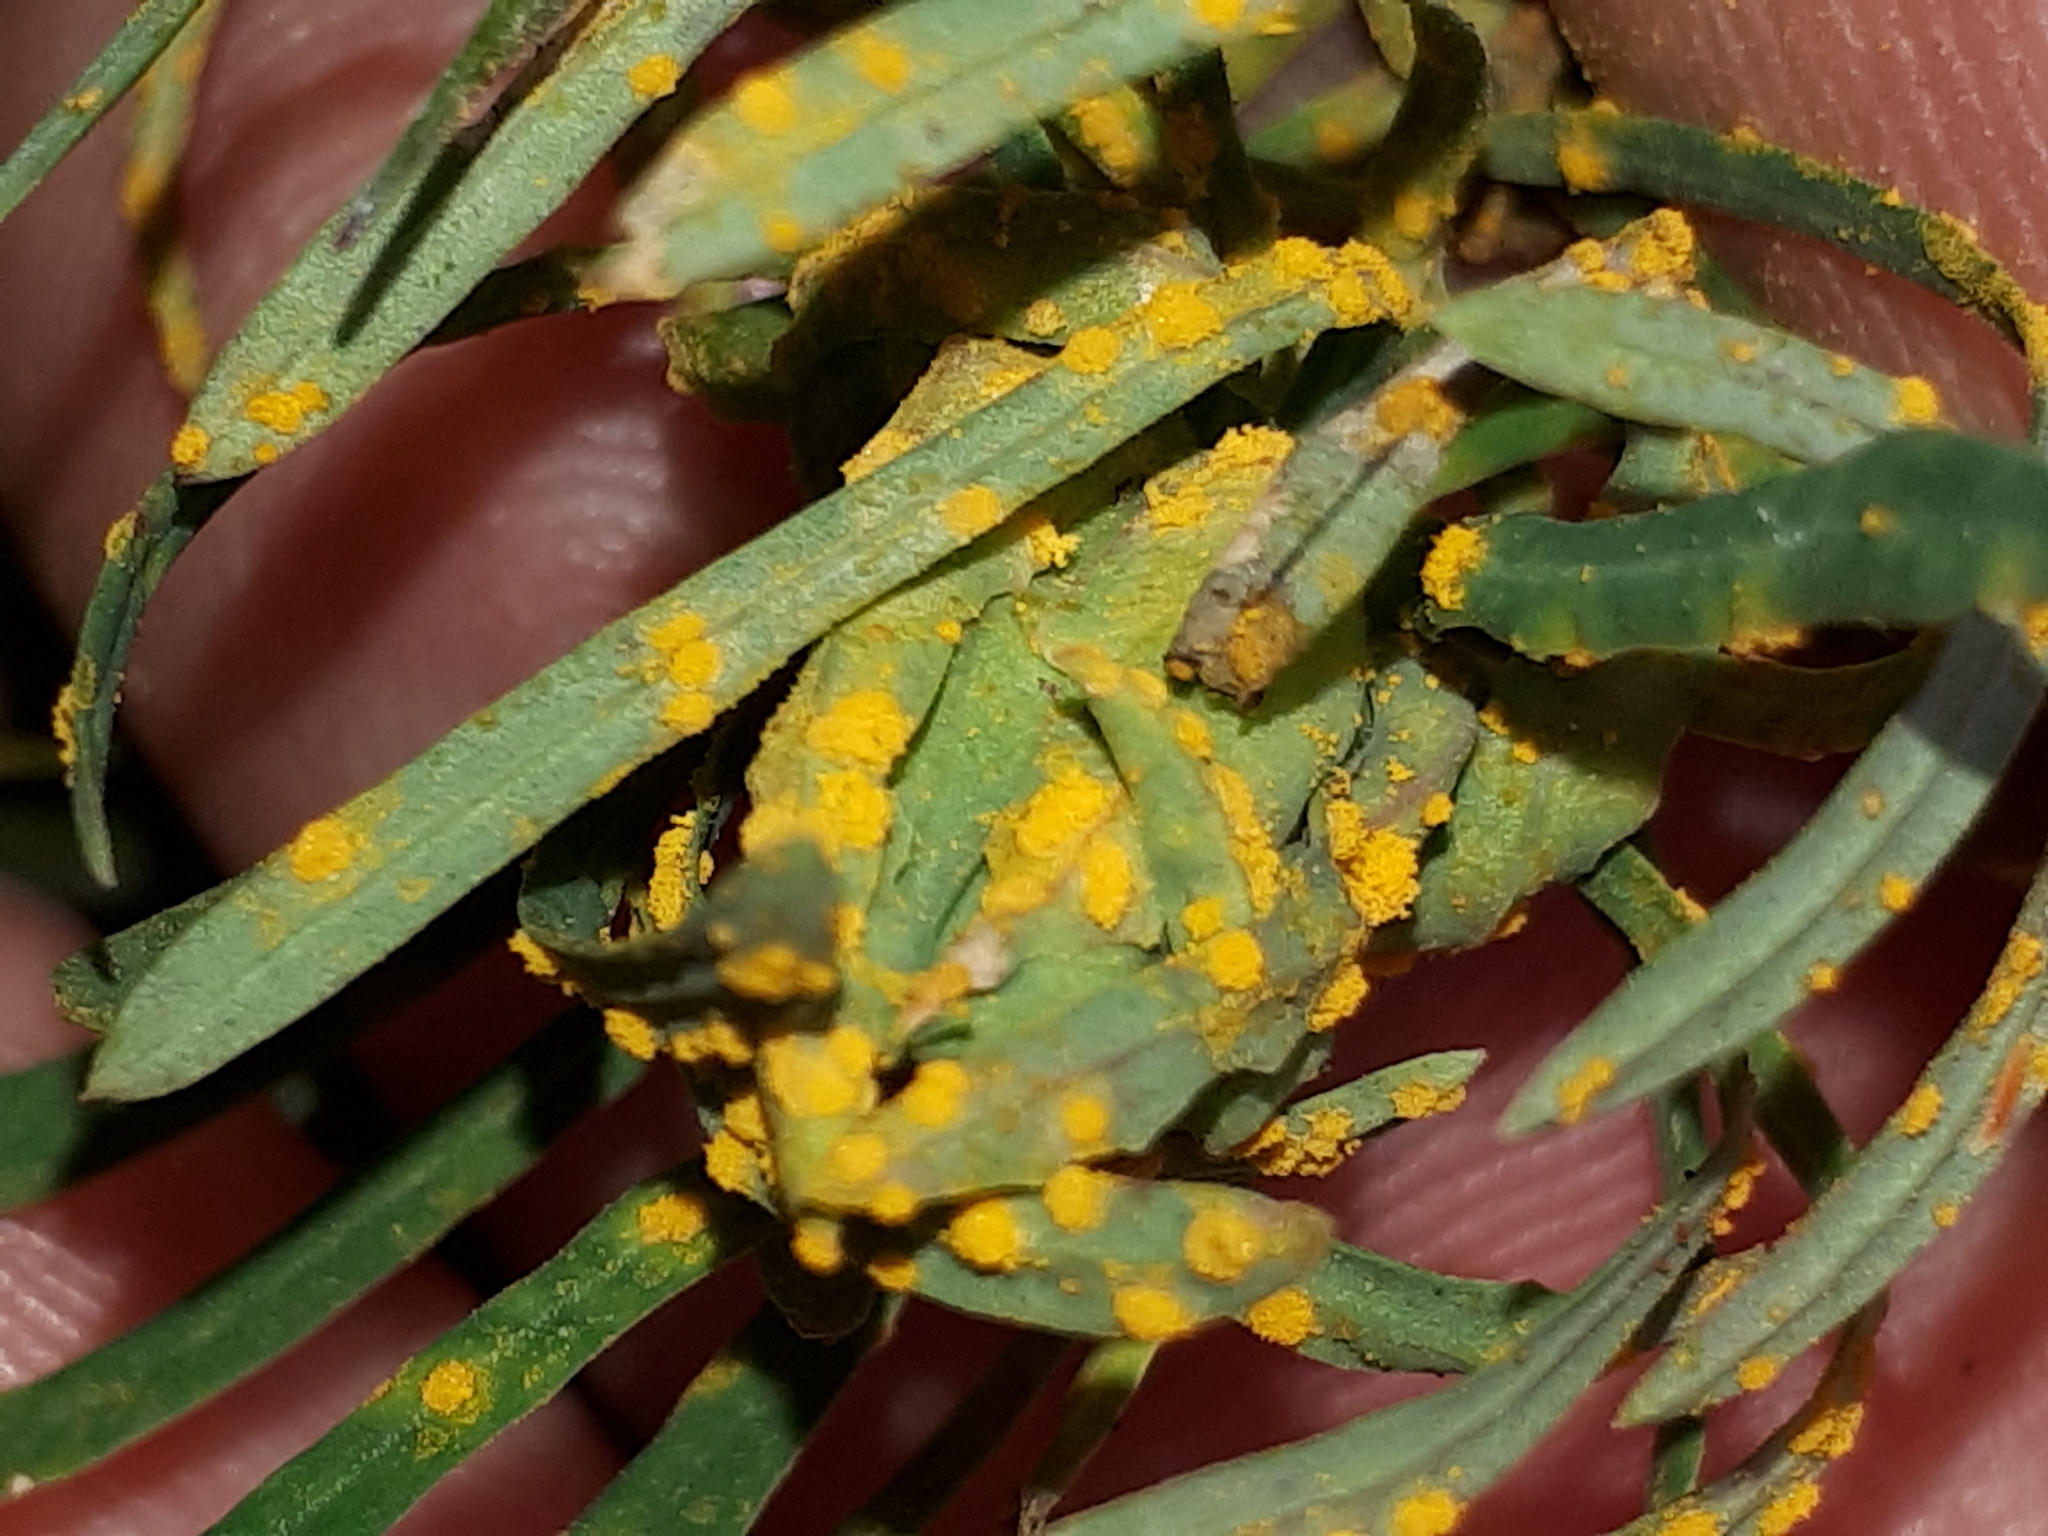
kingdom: Fungi
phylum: Basidiomycota
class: Pucciniomycetes
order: Pucciniales
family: Melampsoraceae
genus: Melampsora
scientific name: Melampsora euphorbiae
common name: Spurge rust
